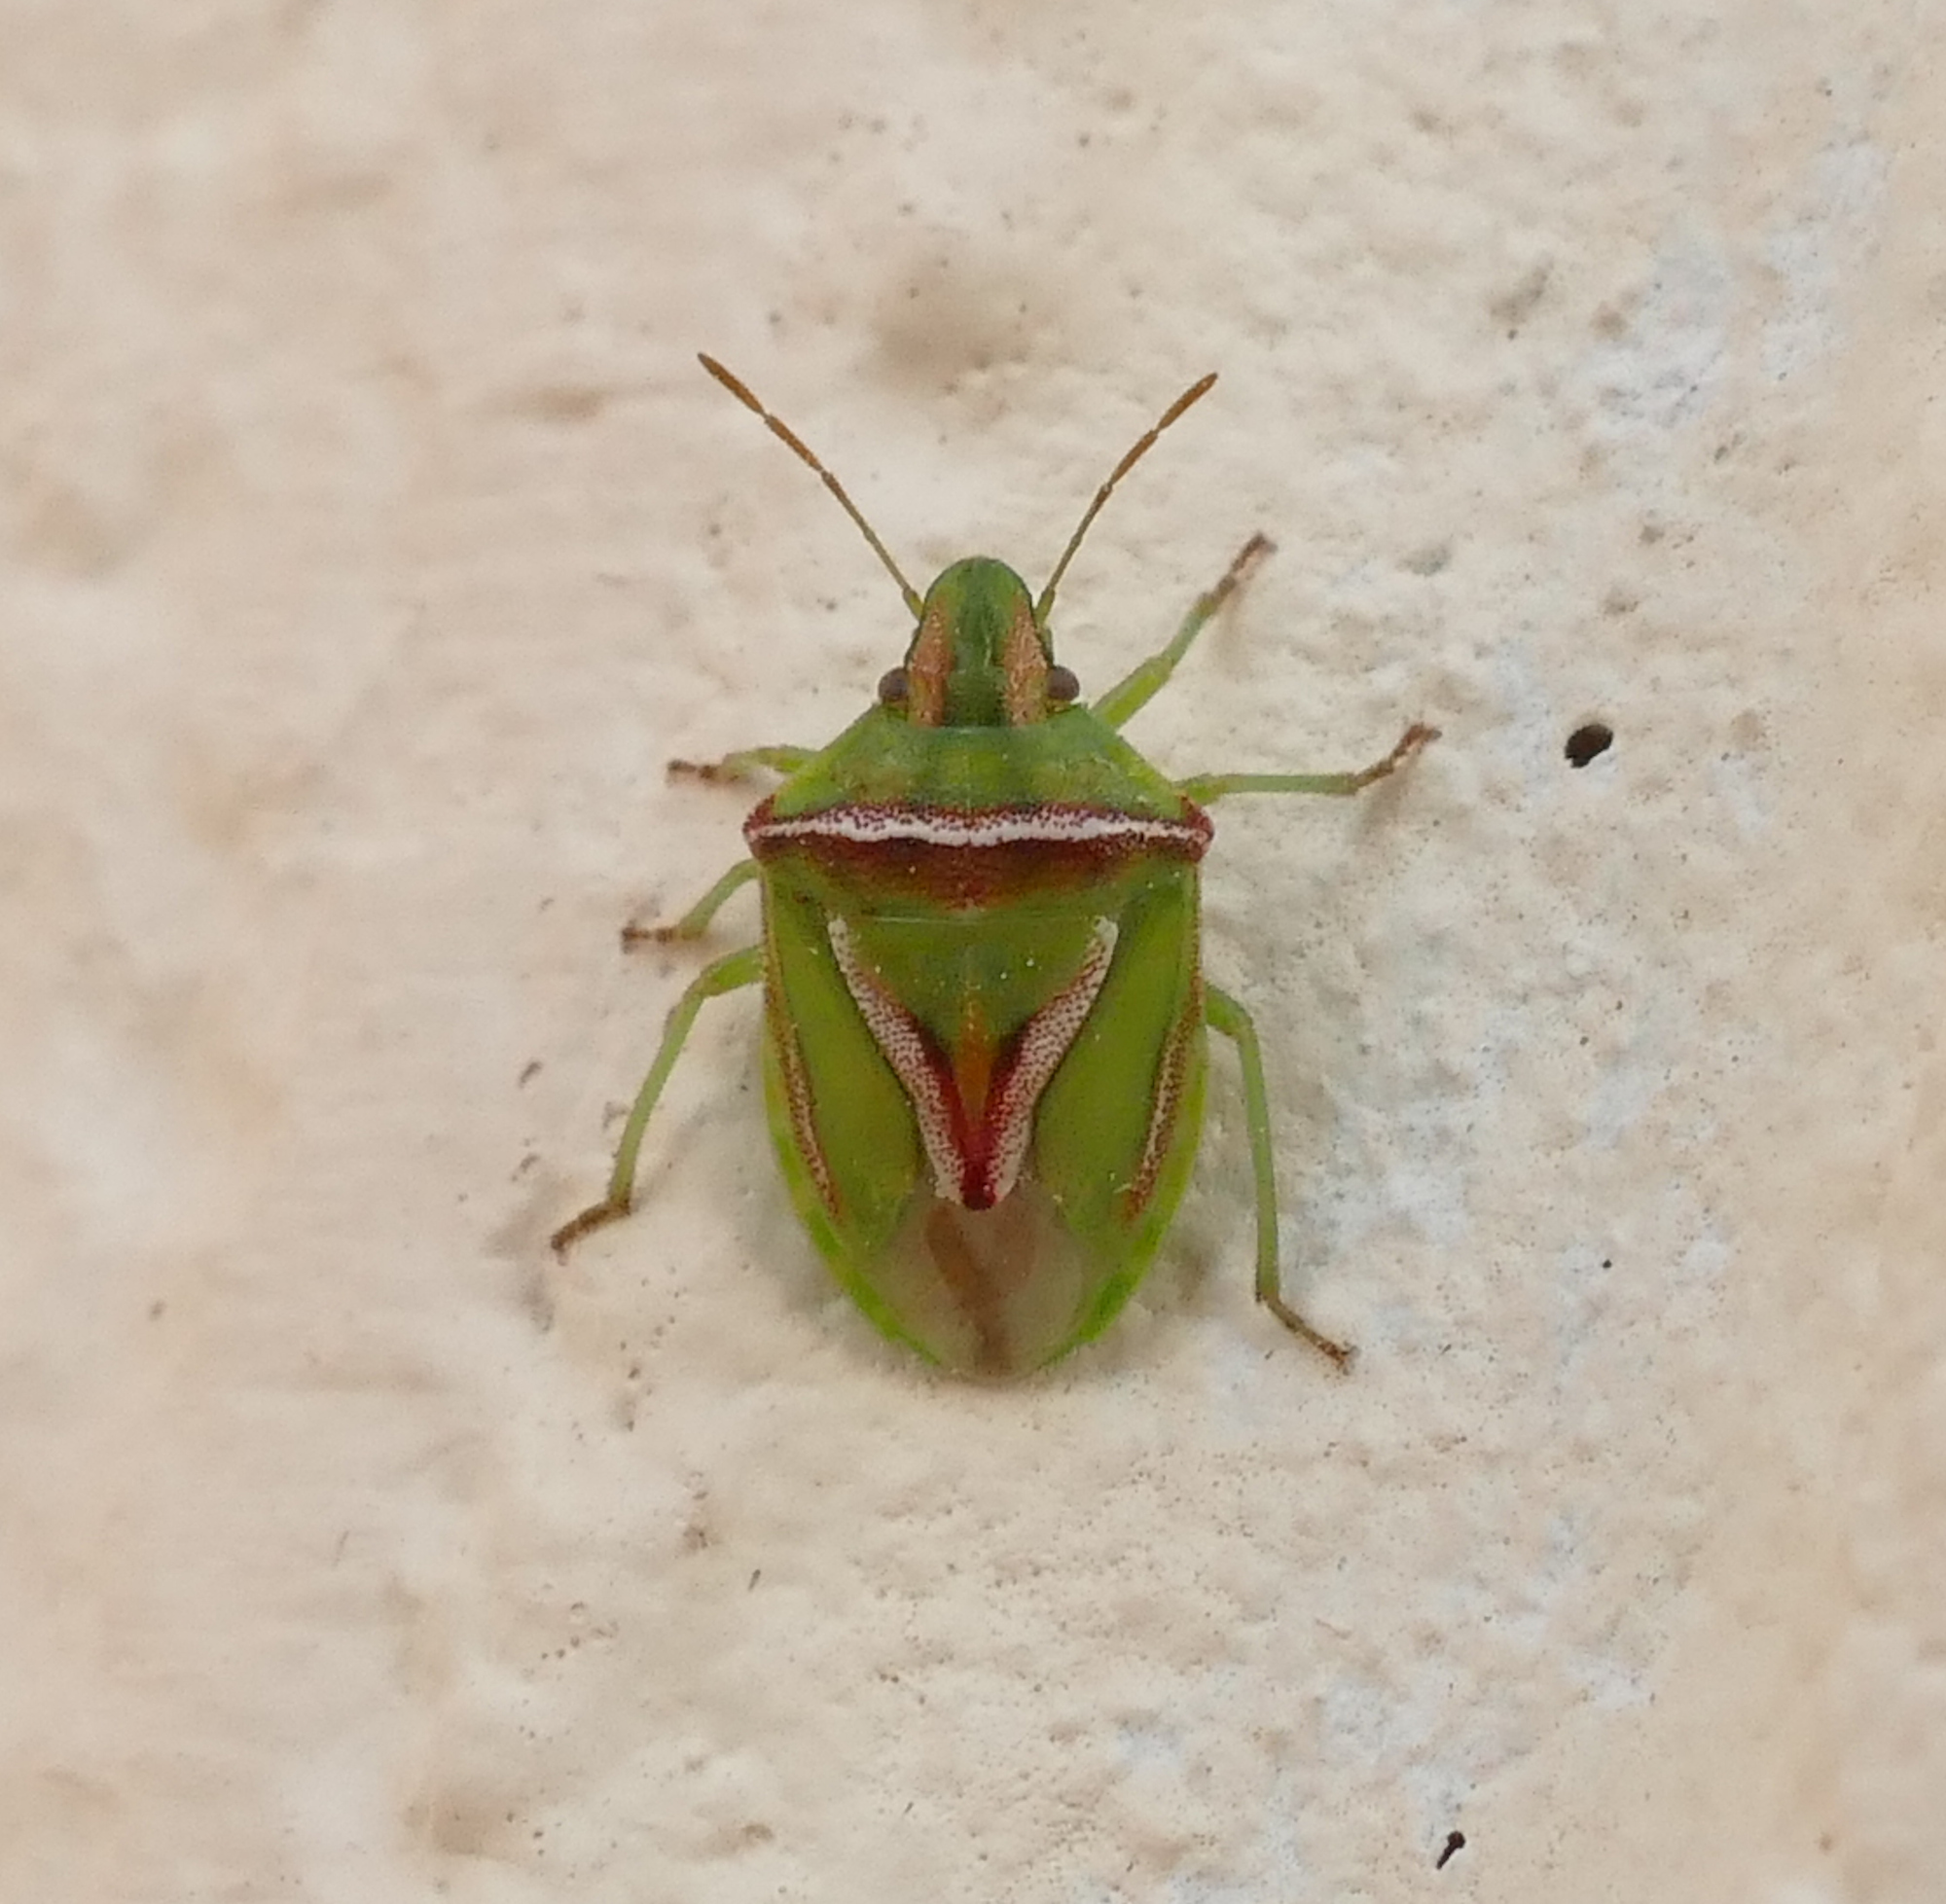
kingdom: Animalia
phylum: Arthropoda
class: Insecta
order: Hemiptera
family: Pentatomidae
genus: Cyptocephala
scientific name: Cyptocephala elegans
